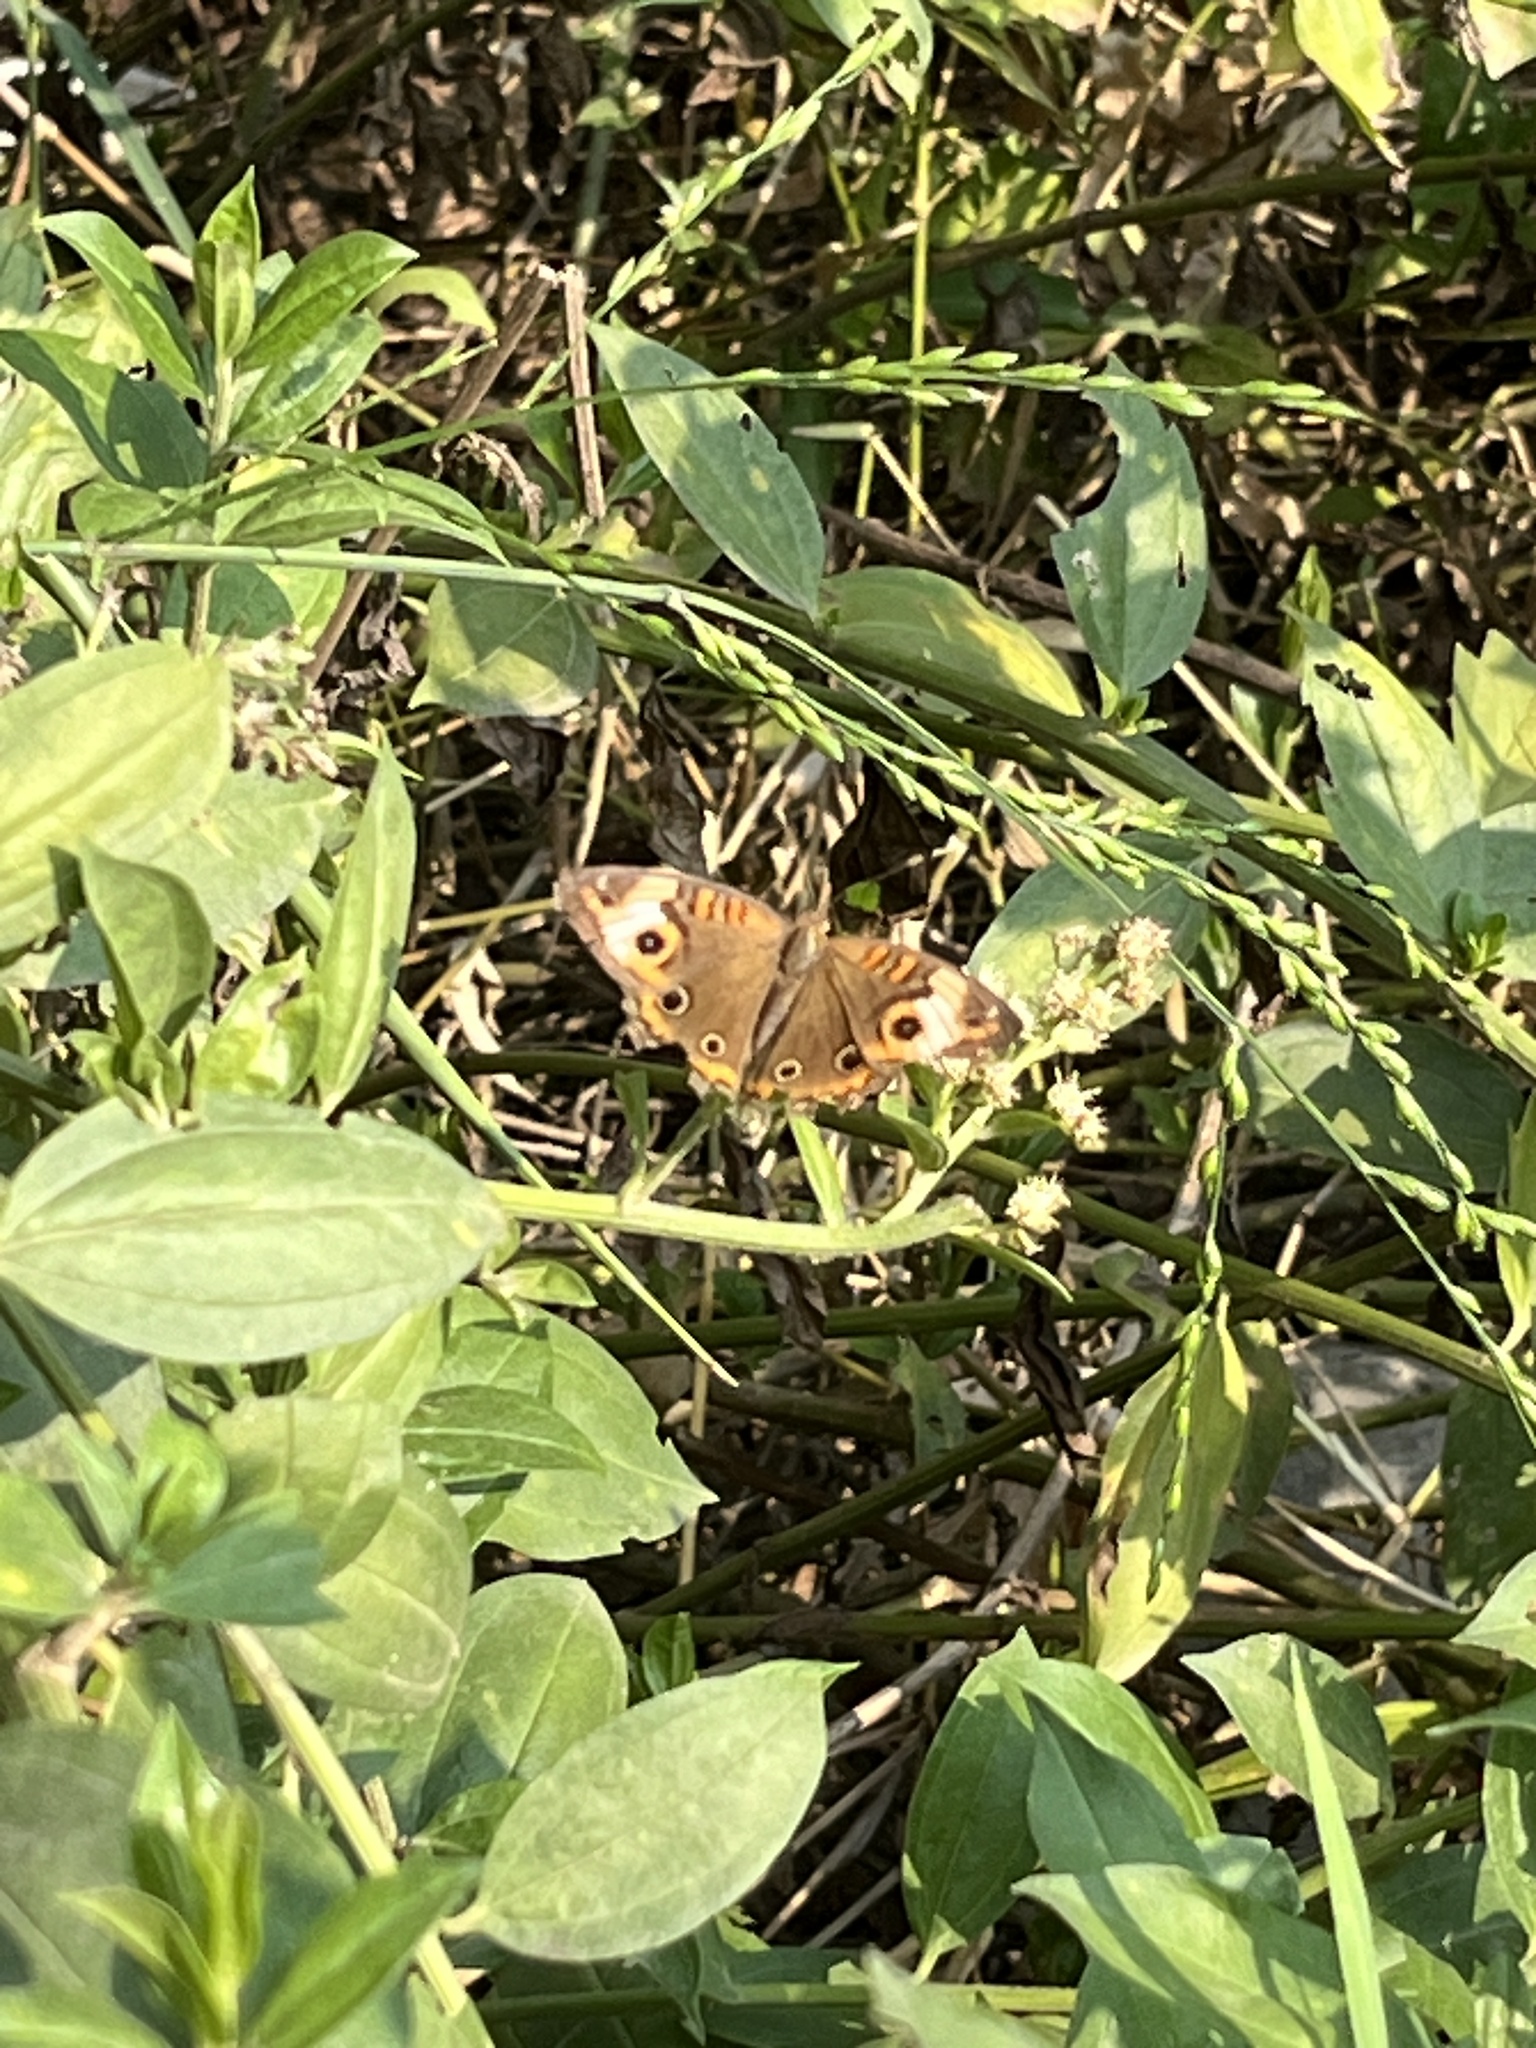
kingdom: Animalia
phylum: Arthropoda
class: Insecta
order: Lepidoptera
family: Nymphalidae
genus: Junonia
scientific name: Junonia lavinia
